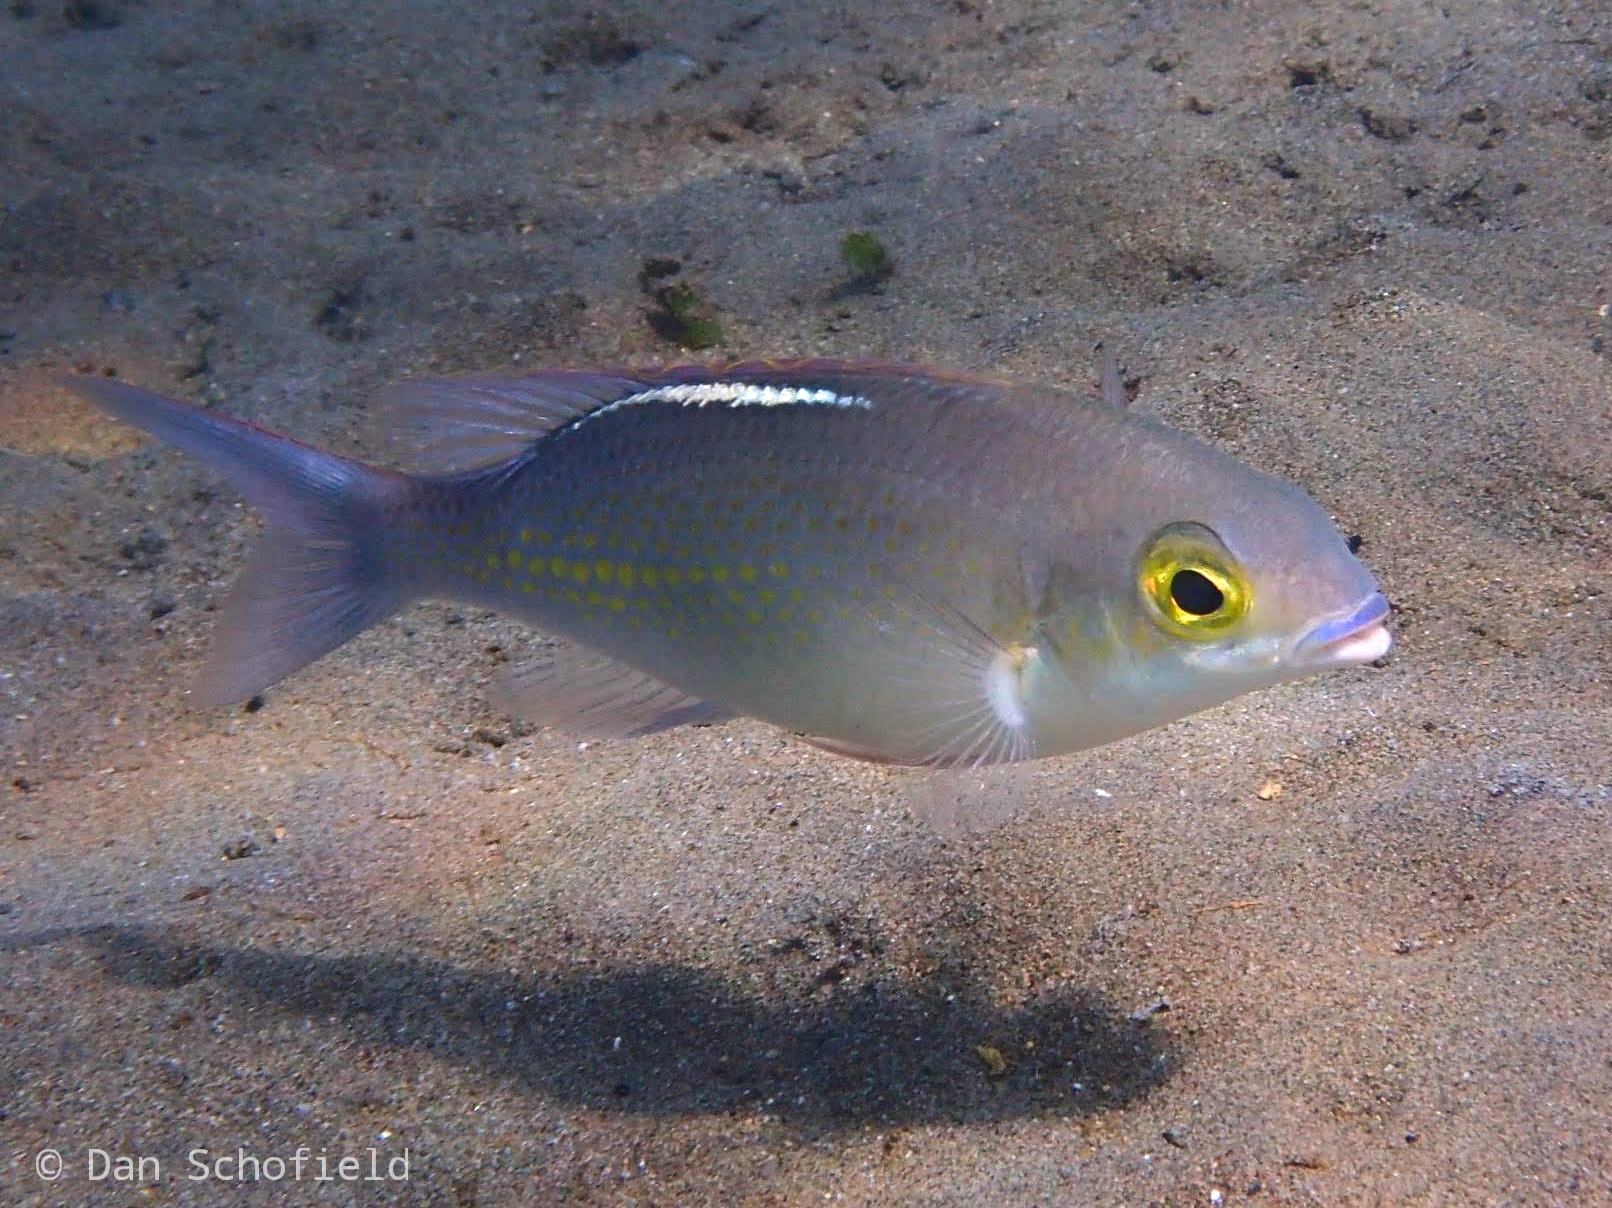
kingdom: Animalia
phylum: Chordata
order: Perciformes
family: Nemipteridae
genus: Scolopsis
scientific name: Scolopsis ciliata
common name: Ciliate spinecheek
